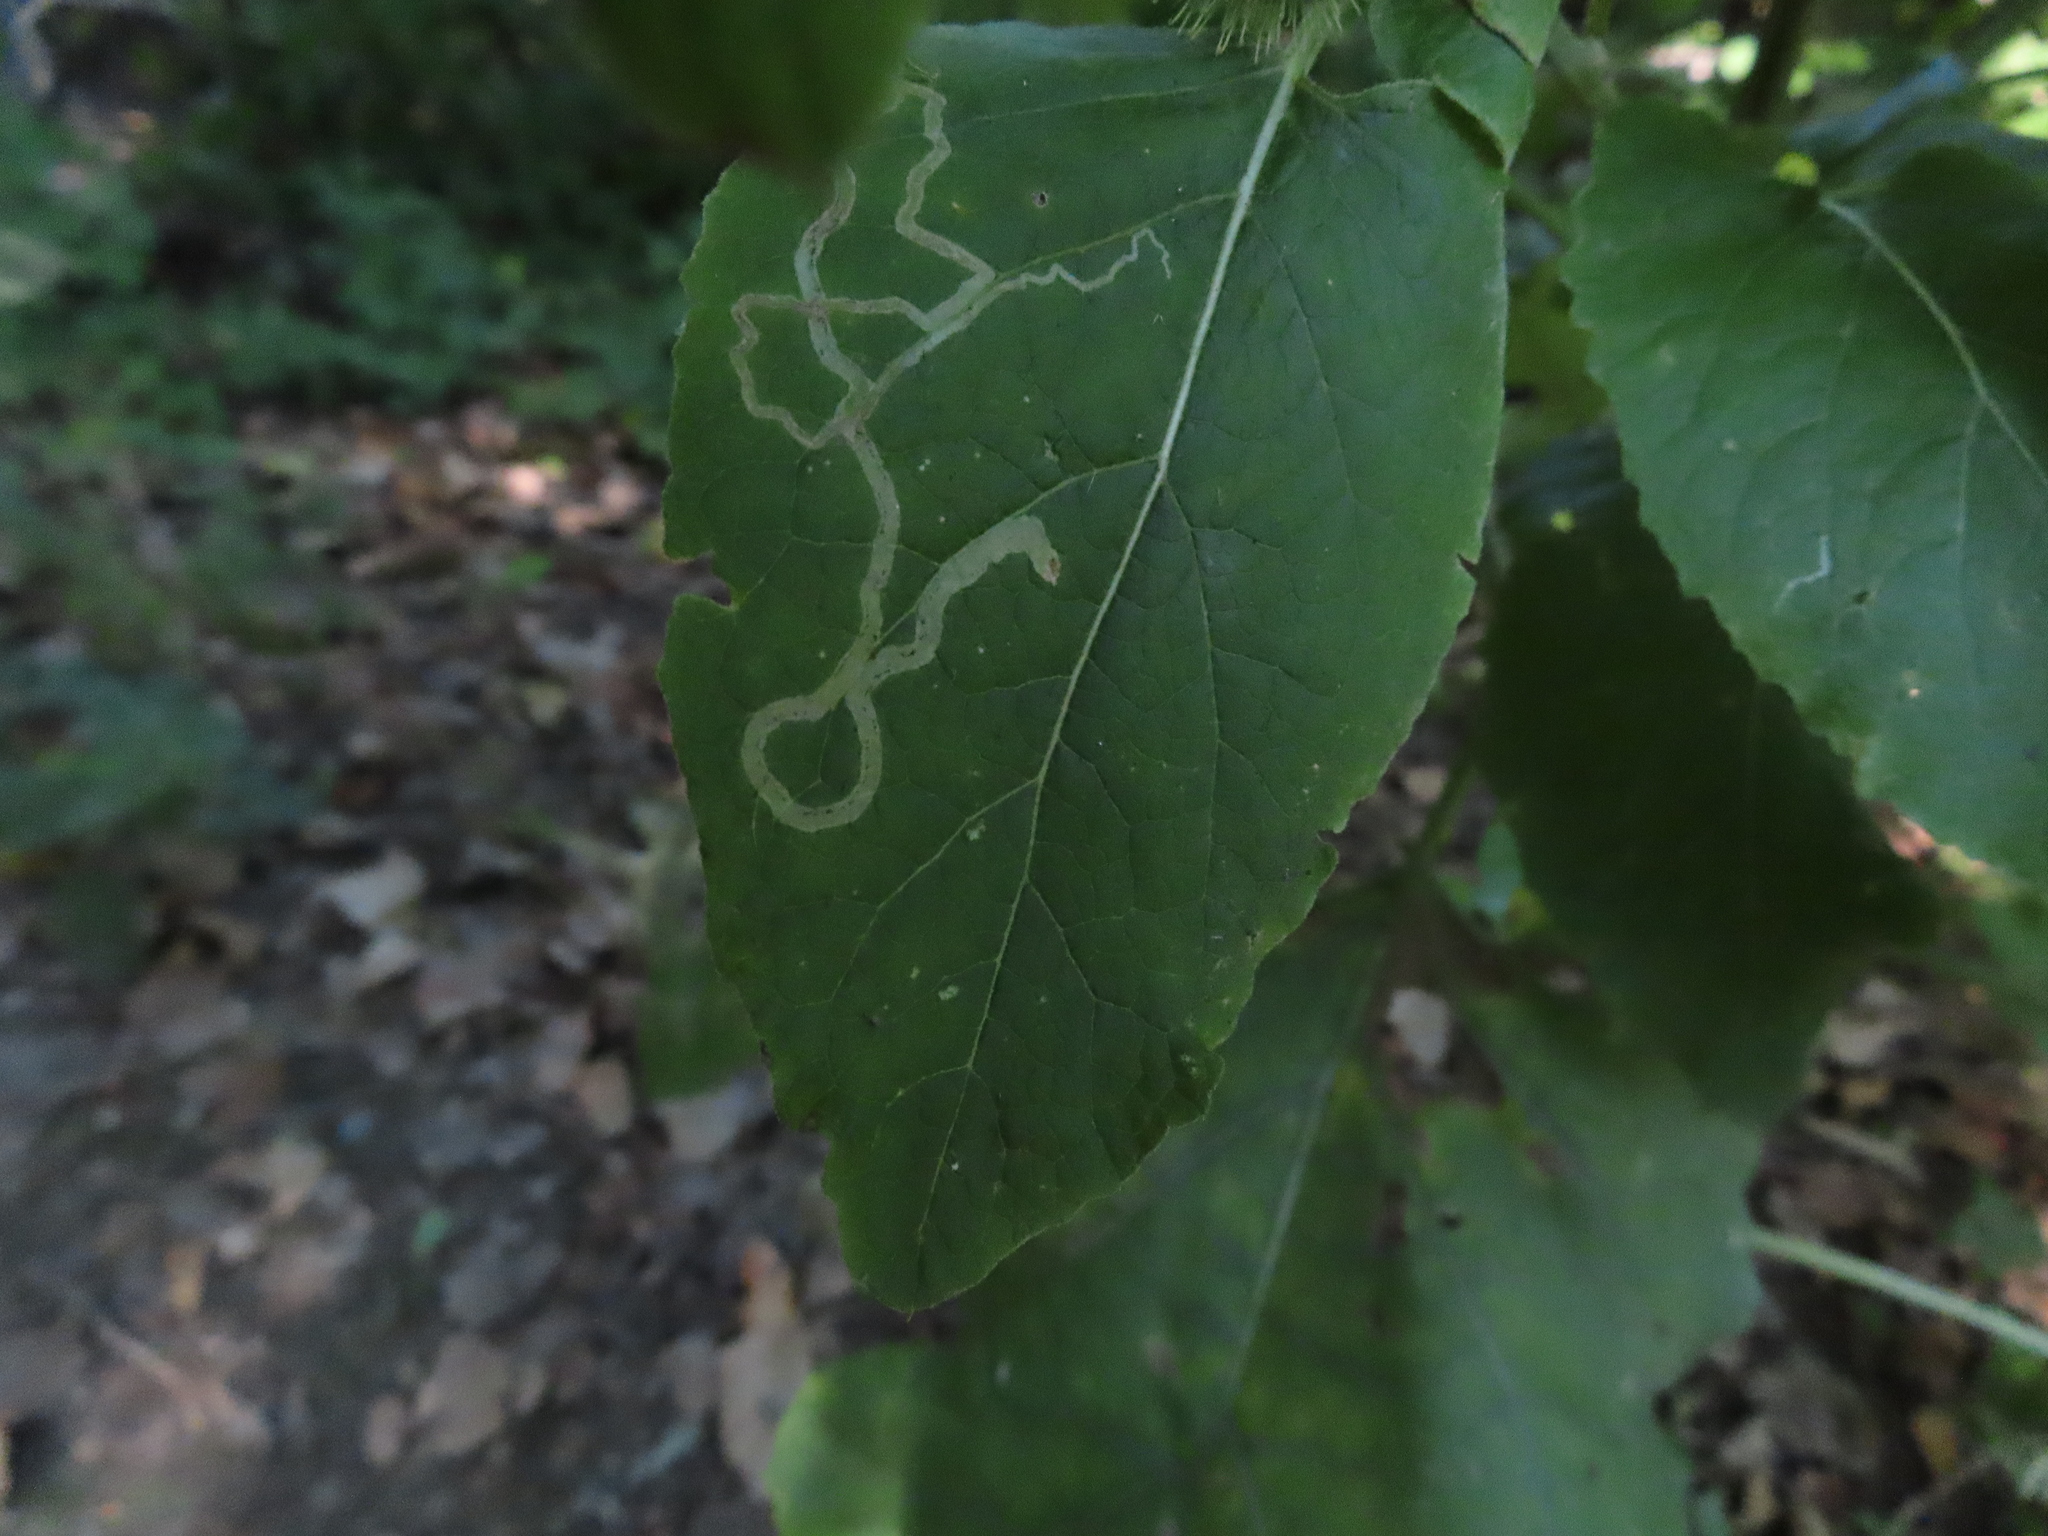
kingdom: Animalia
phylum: Arthropoda
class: Insecta
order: Diptera
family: Agromyzidae
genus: Liriomyza
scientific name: Liriomyza arctii
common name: Burdock leafminer
